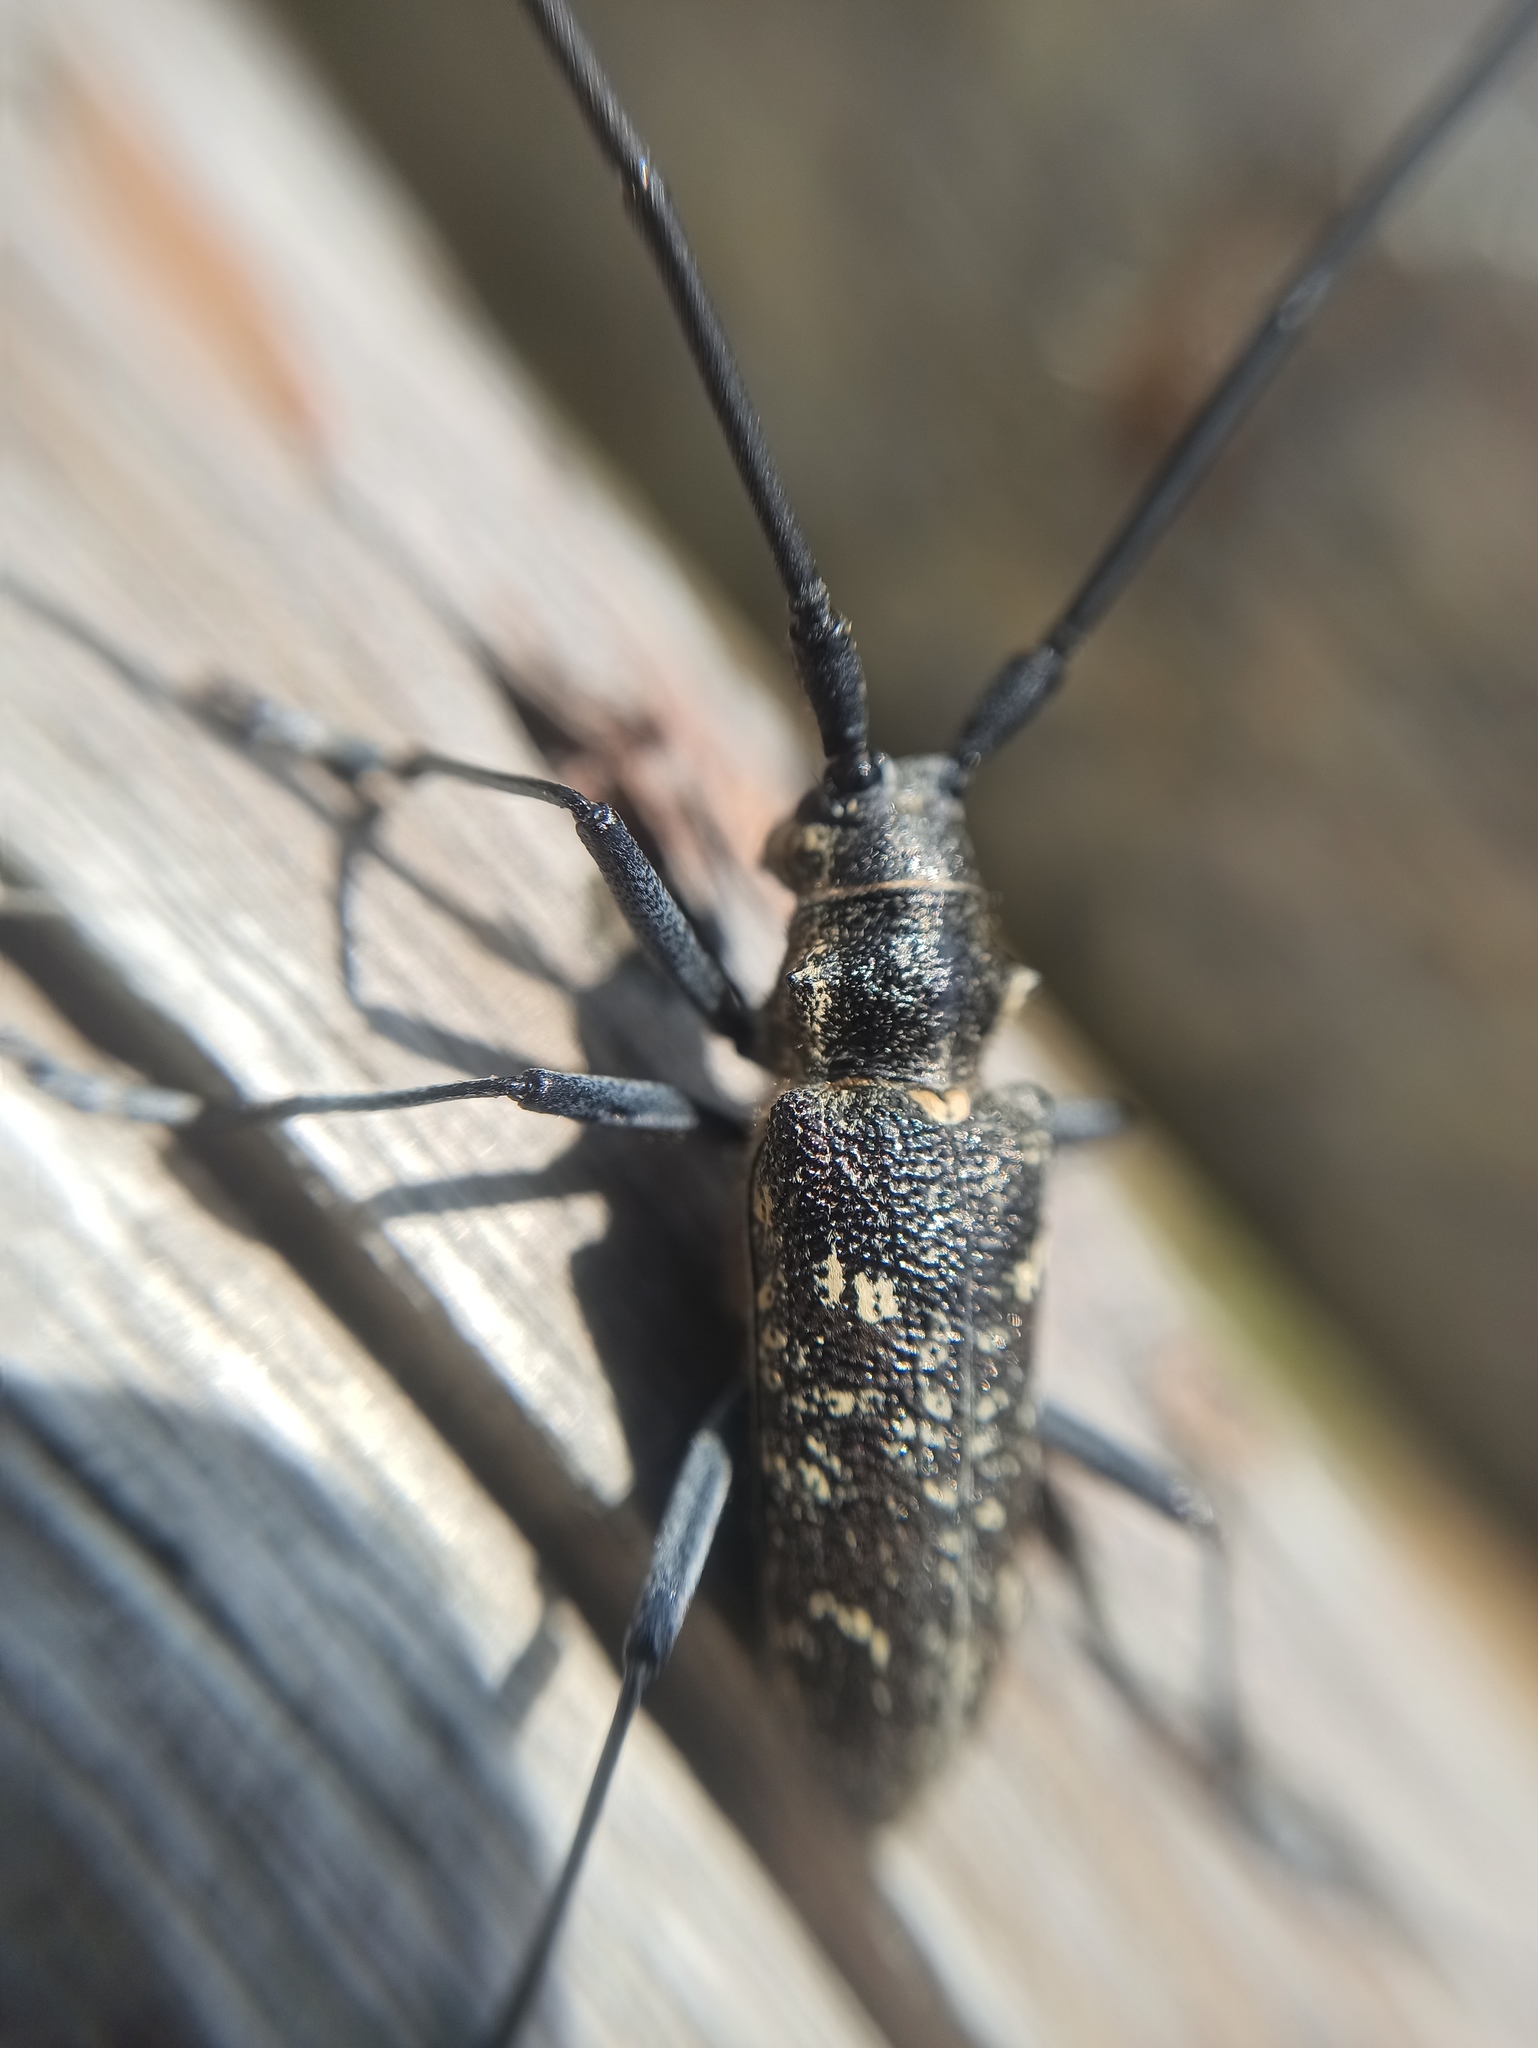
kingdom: Animalia
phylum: Arthropoda
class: Insecta
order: Coleoptera
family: Cerambycidae
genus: Monochamus
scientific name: Monochamus sutor
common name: Pine sawyer
